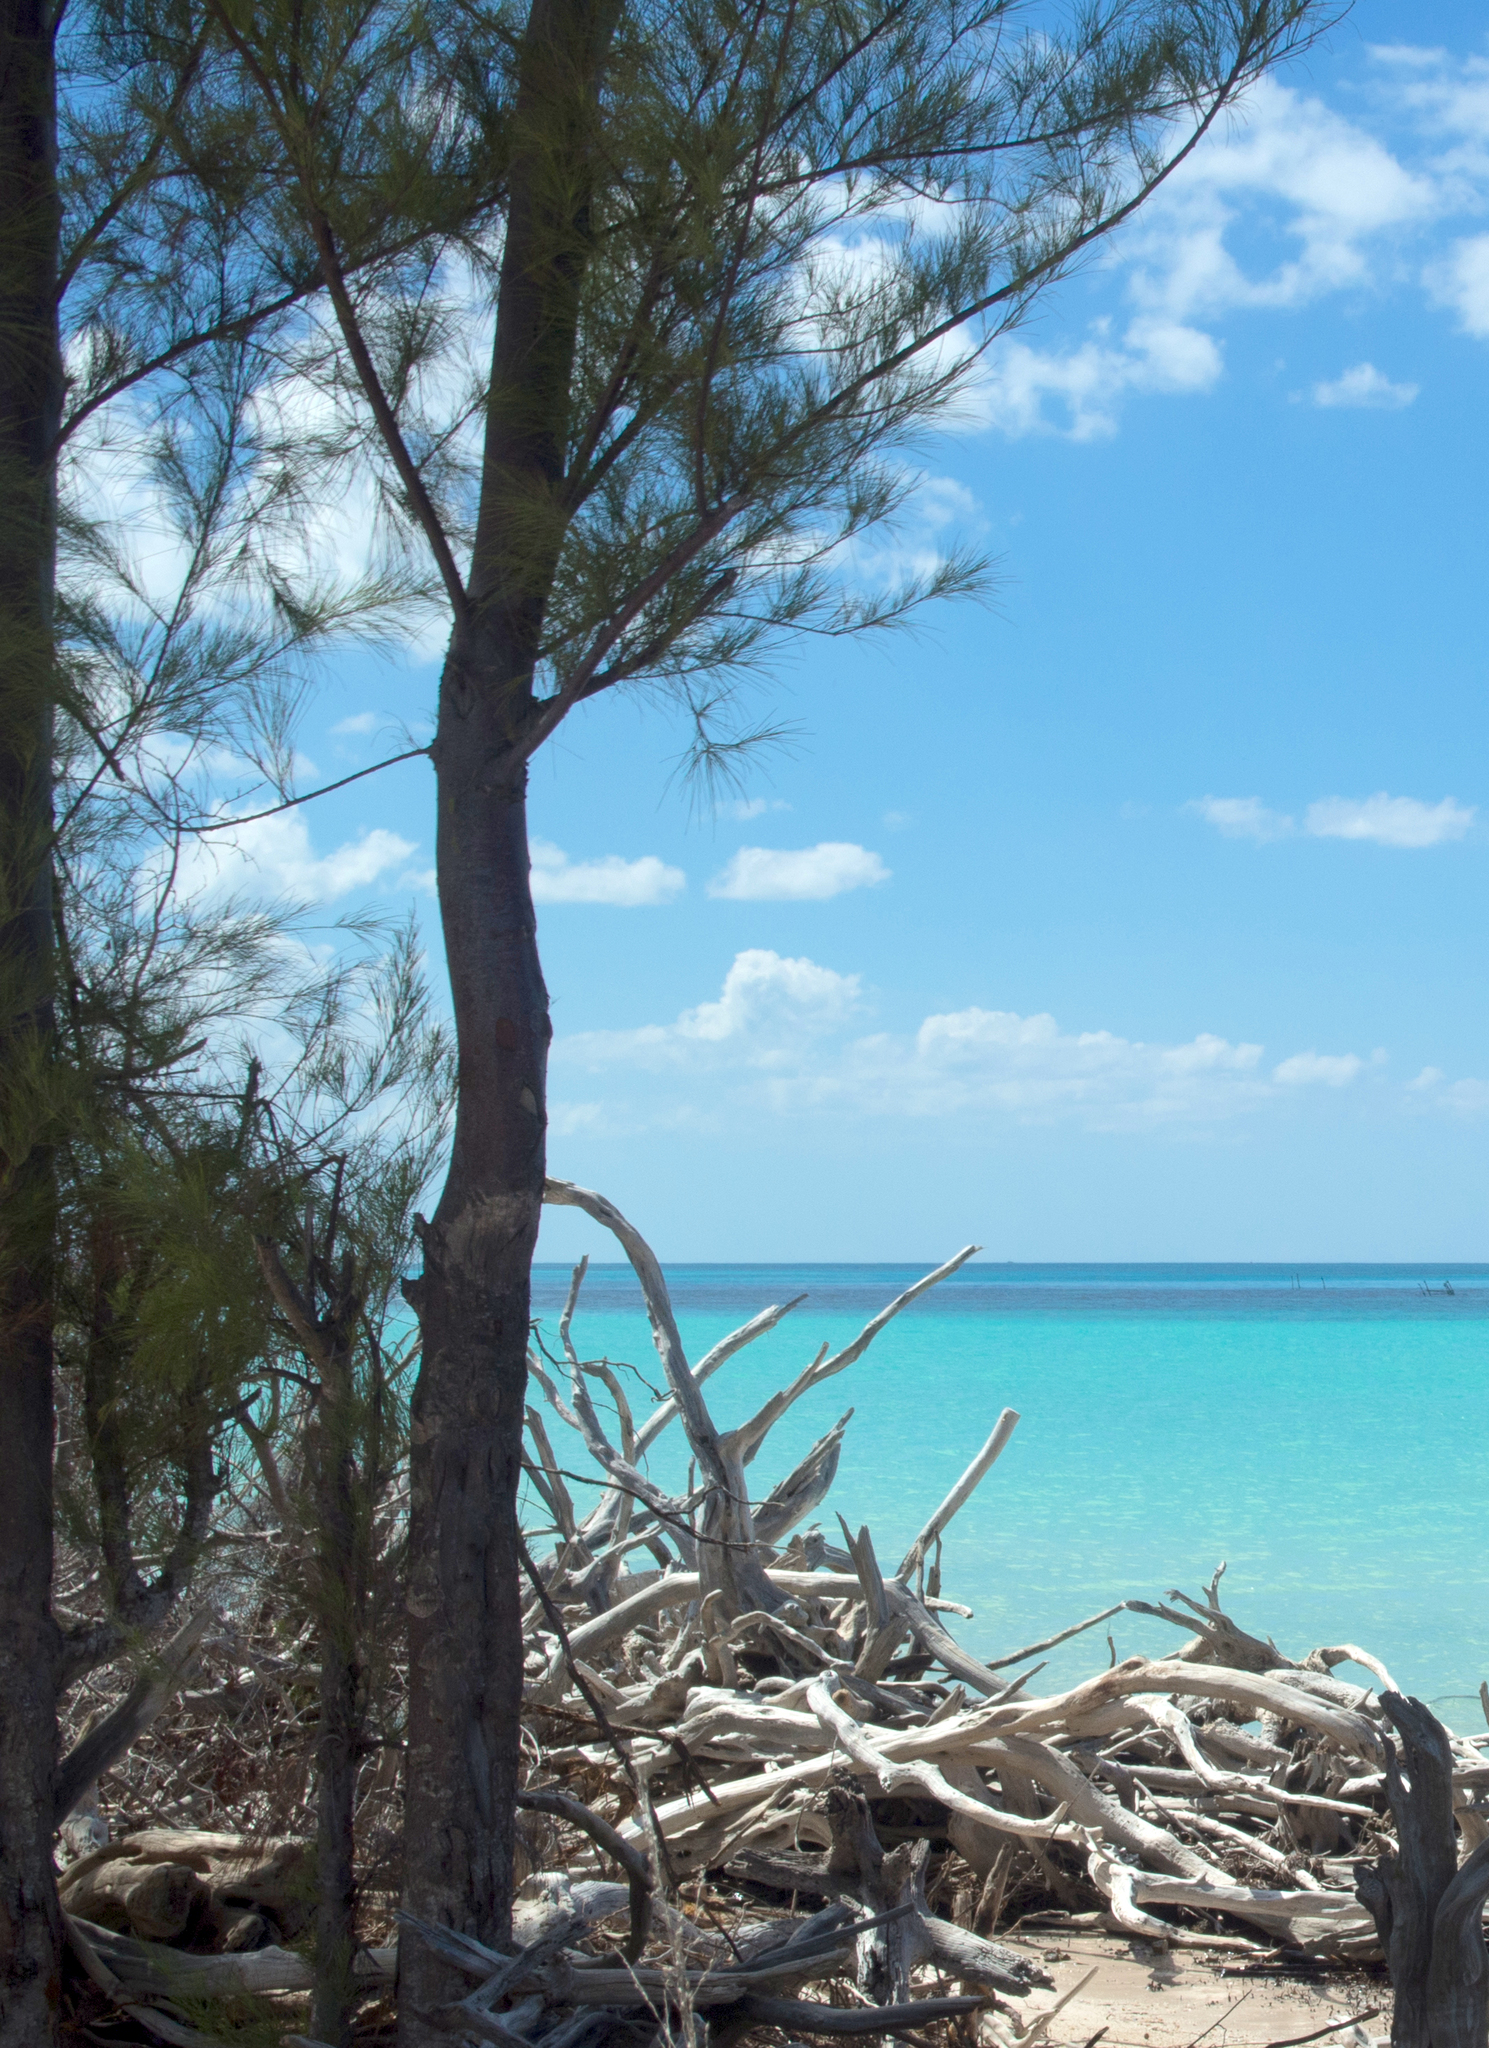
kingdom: Plantae
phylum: Tracheophyta
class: Magnoliopsida
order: Fagales
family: Casuarinaceae
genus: Casuarina
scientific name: Casuarina equisetifolia
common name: Beach sheoak
